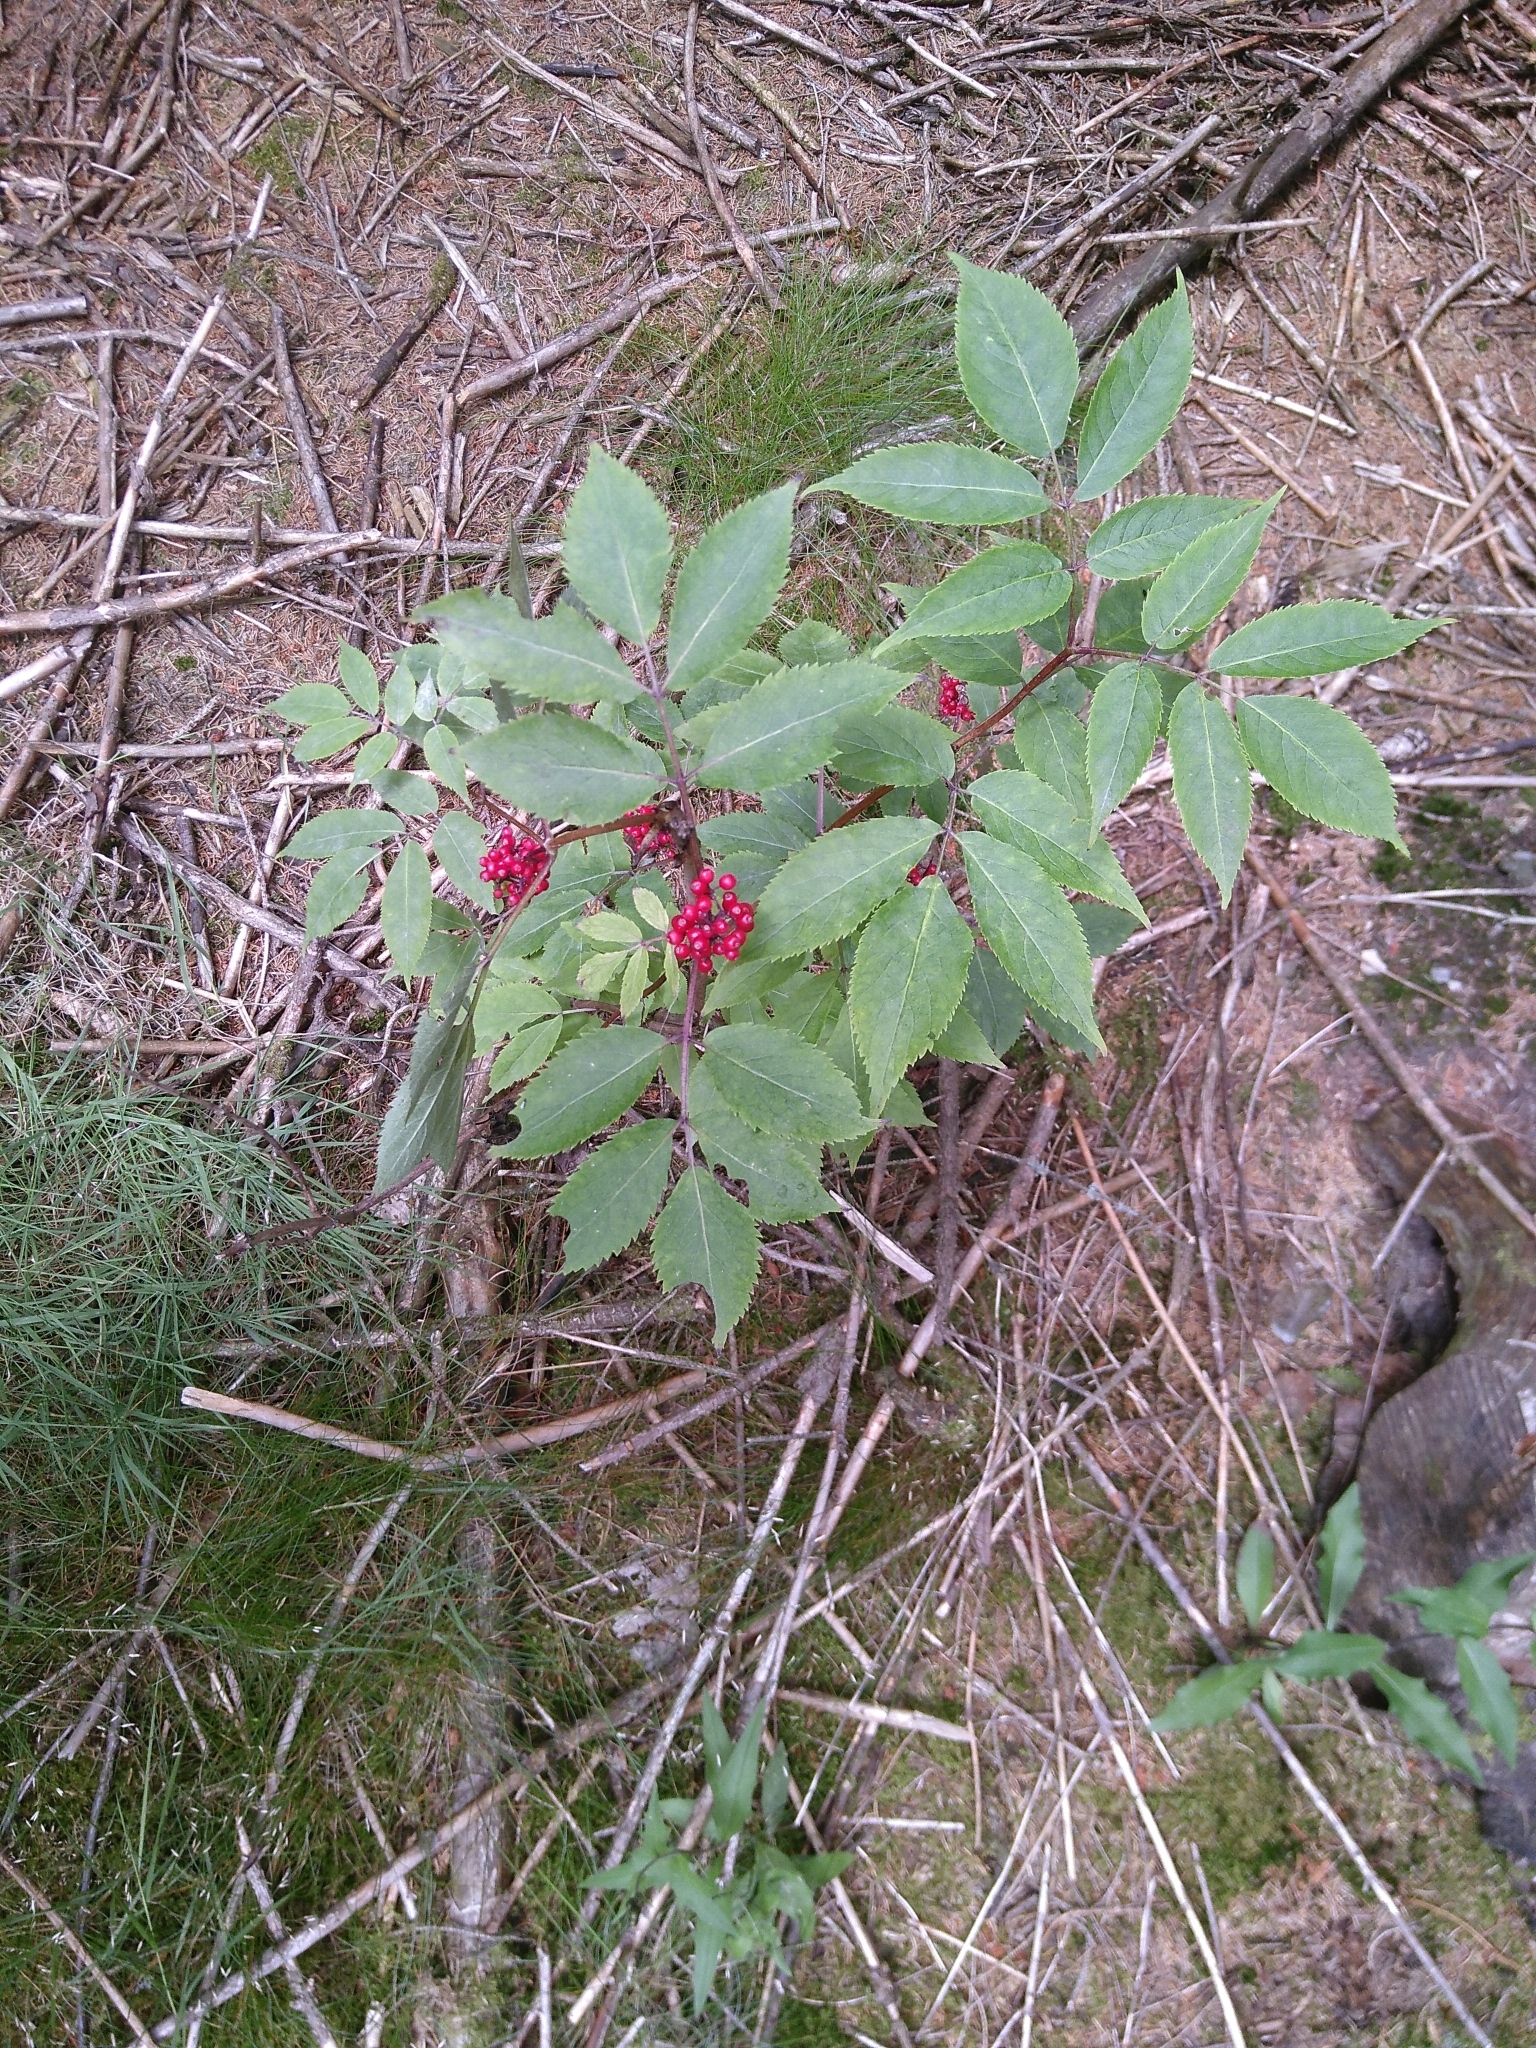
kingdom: Plantae
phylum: Tracheophyta
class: Magnoliopsida
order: Dipsacales
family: Viburnaceae
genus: Sambucus
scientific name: Sambucus racemosa
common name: Red-berried elder
